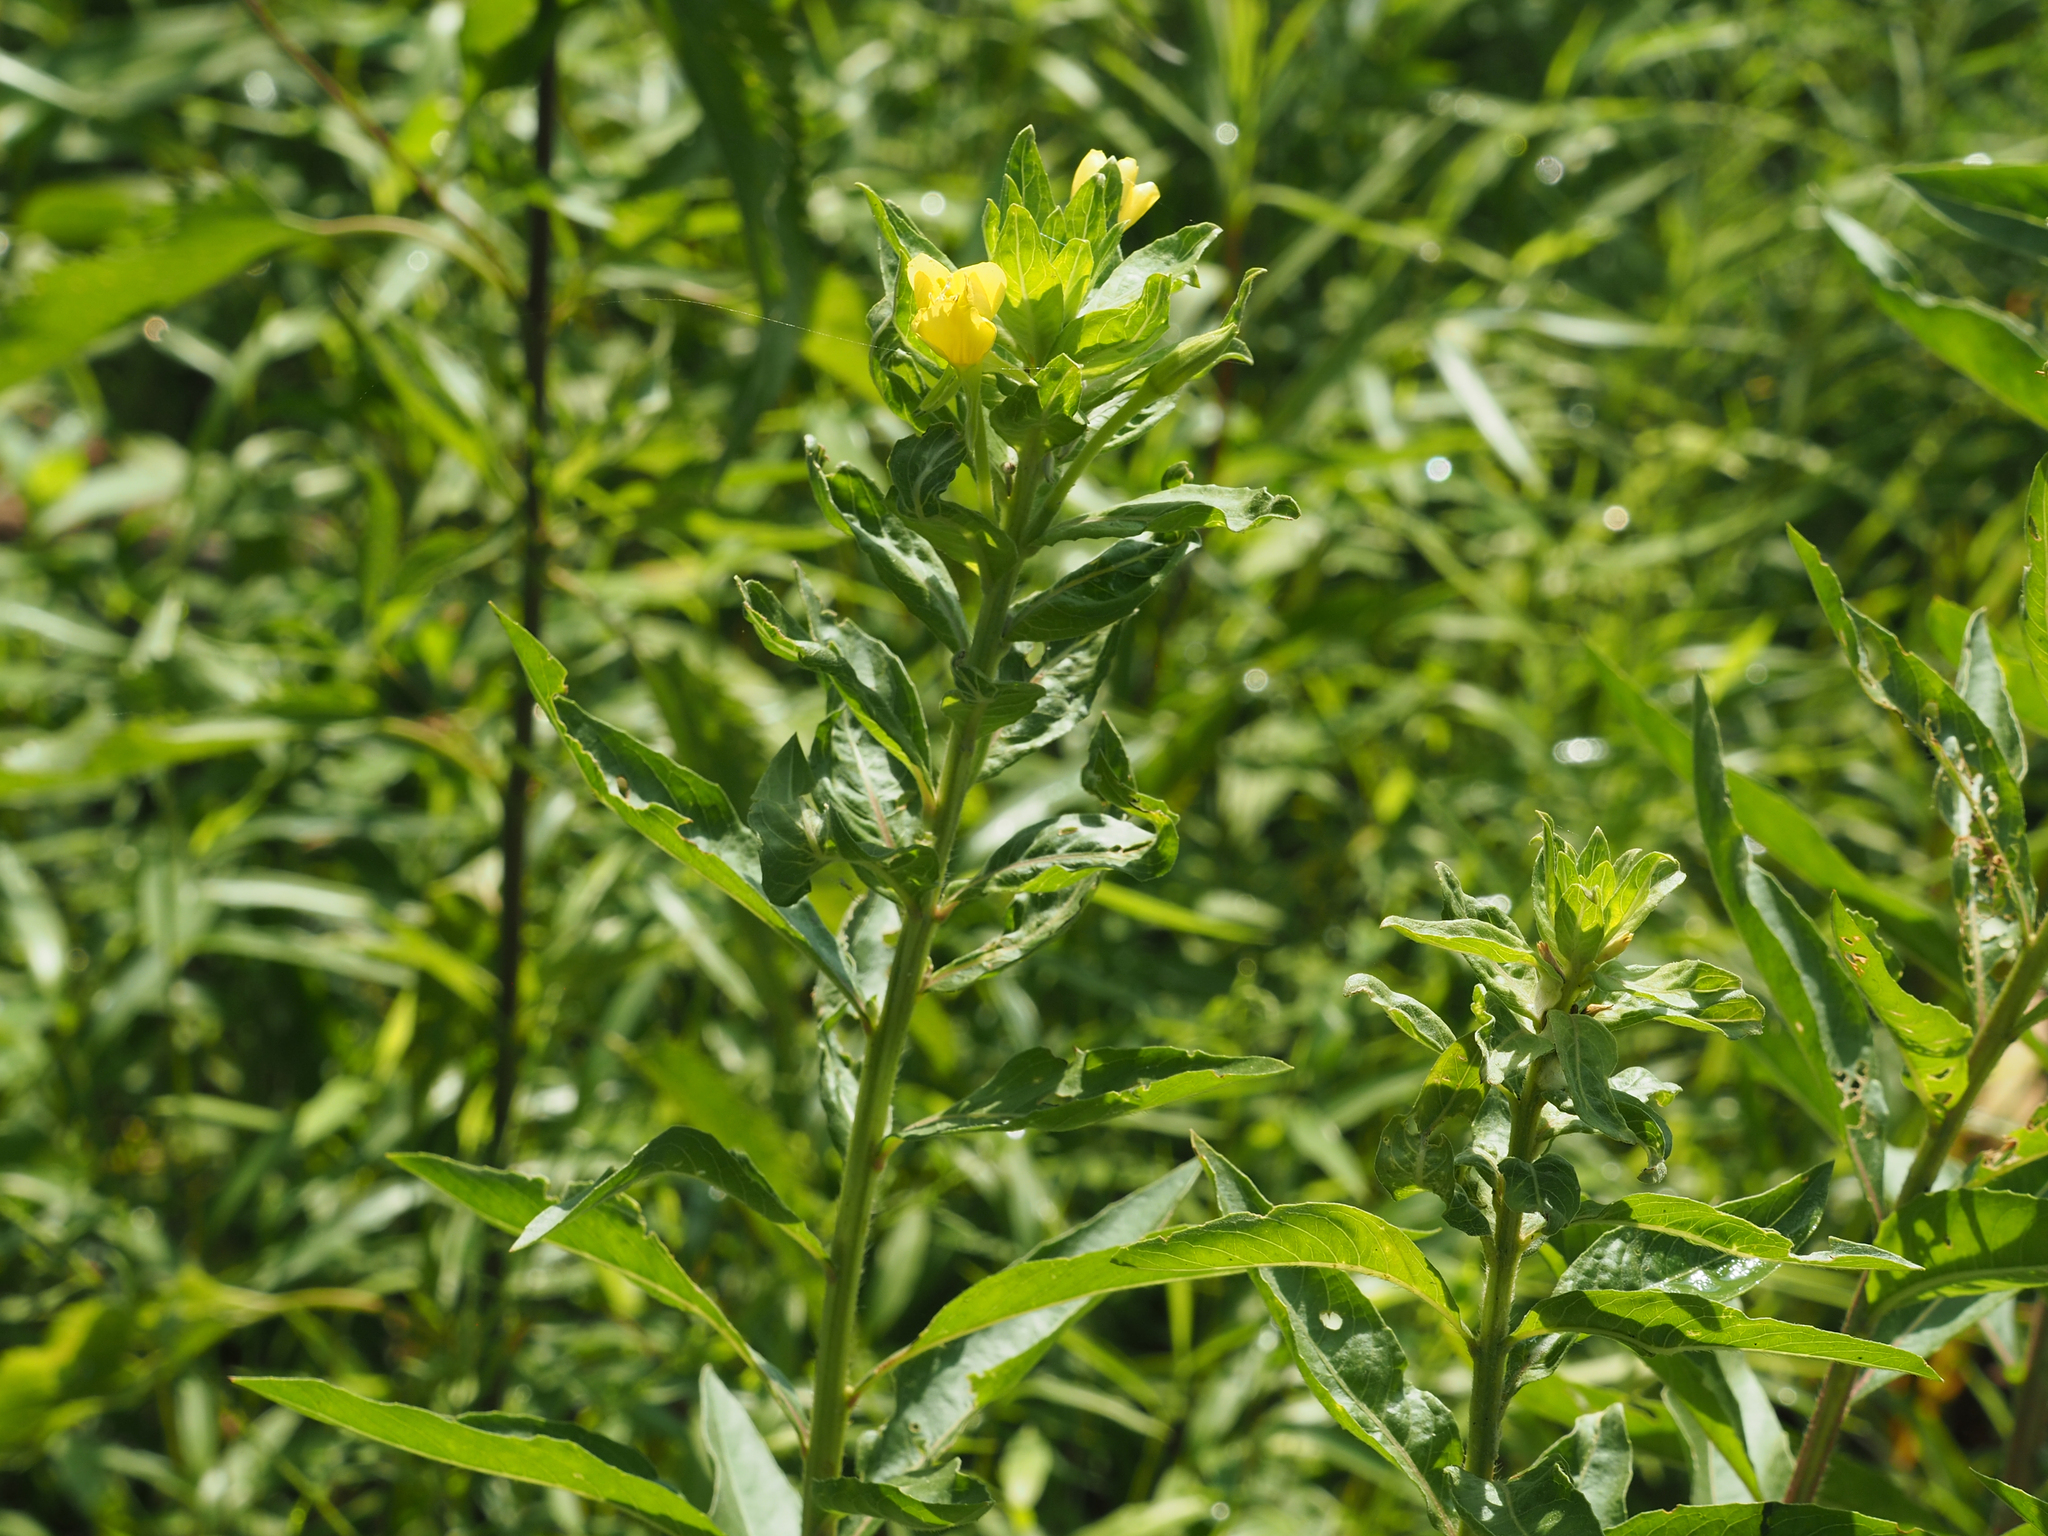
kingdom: Plantae
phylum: Tracheophyta
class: Magnoliopsida
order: Myrtales
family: Onagraceae
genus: Oenothera
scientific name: Oenothera biennis
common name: Common evening-primrose
